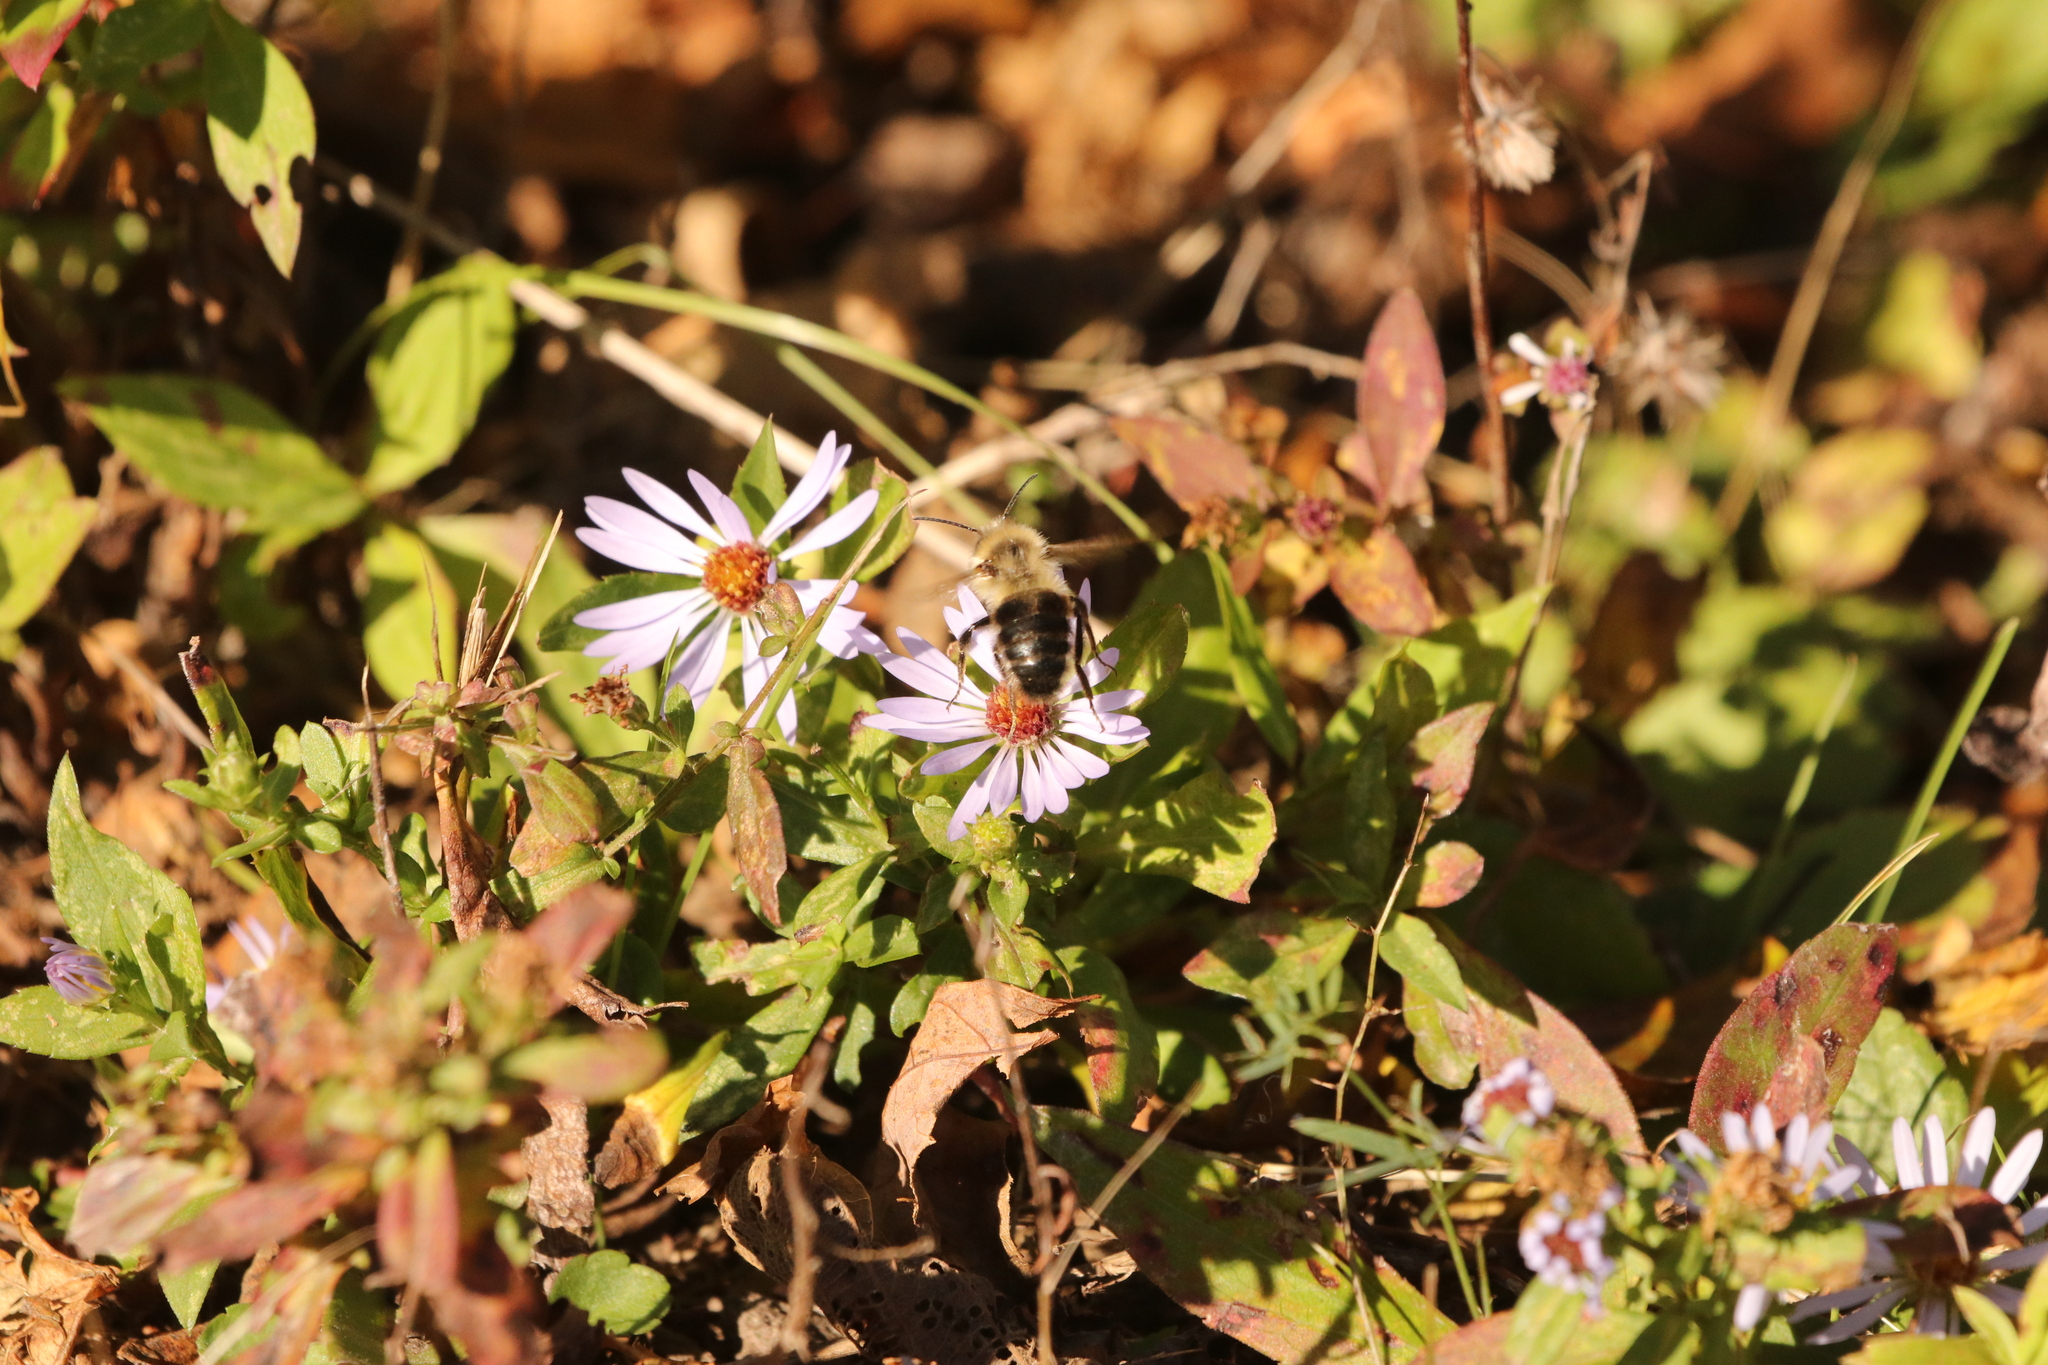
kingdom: Animalia
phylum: Arthropoda
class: Insecta
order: Hymenoptera
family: Apidae
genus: Bombus
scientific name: Bombus impatiens
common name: Common eastern bumble bee
